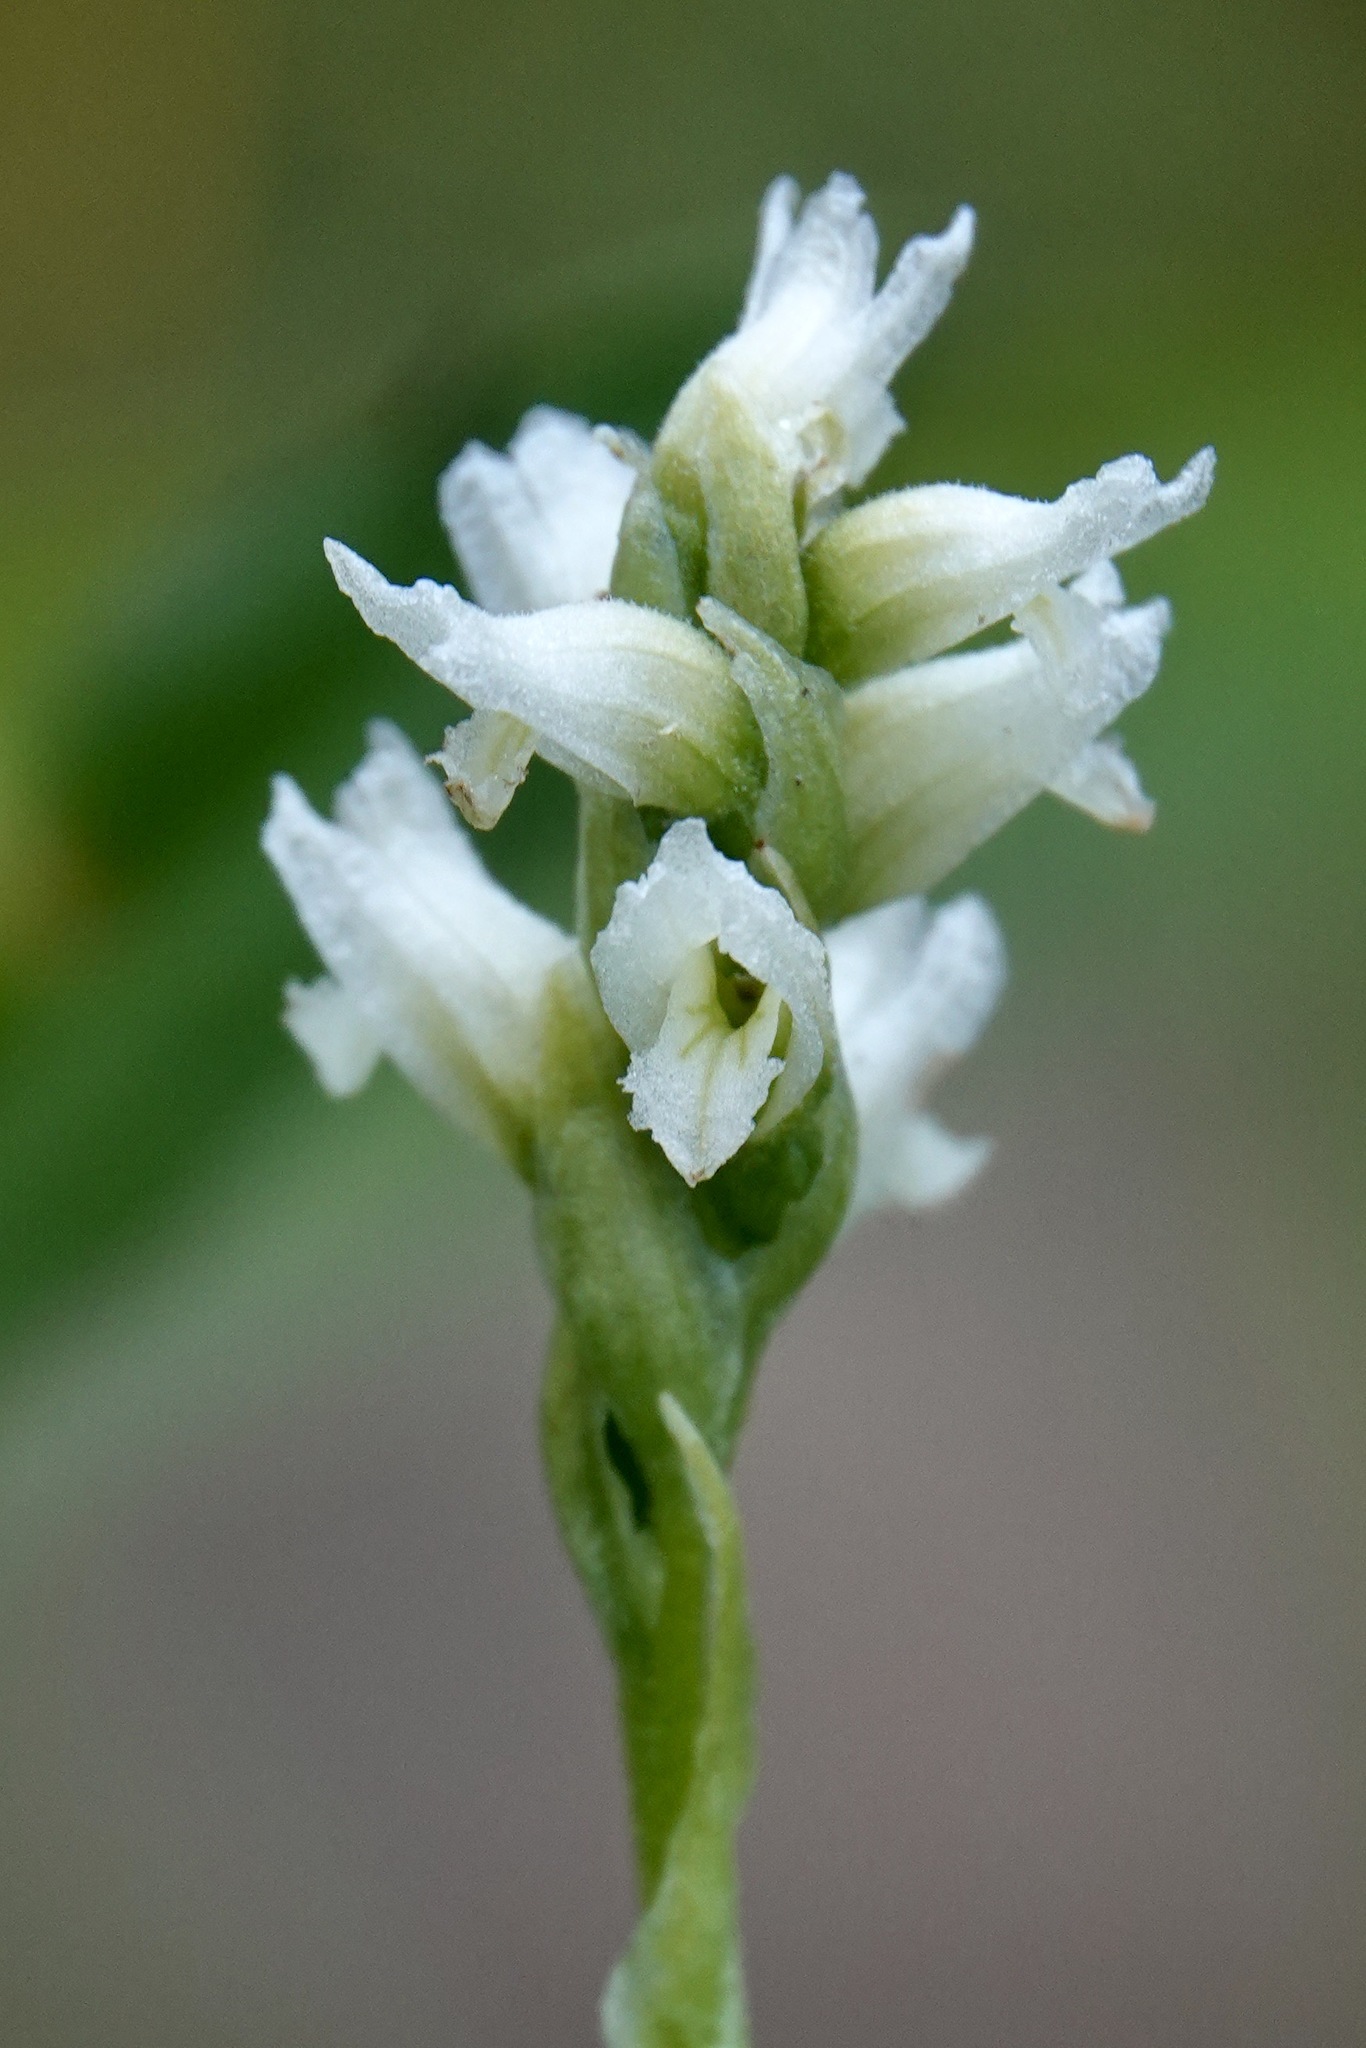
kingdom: Plantae
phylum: Tracheophyta
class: Liliopsida
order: Asparagales
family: Orchidaceae
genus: Spiranthes
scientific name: Spiranthes romanzoffiana
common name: Irish lady's-tresses
